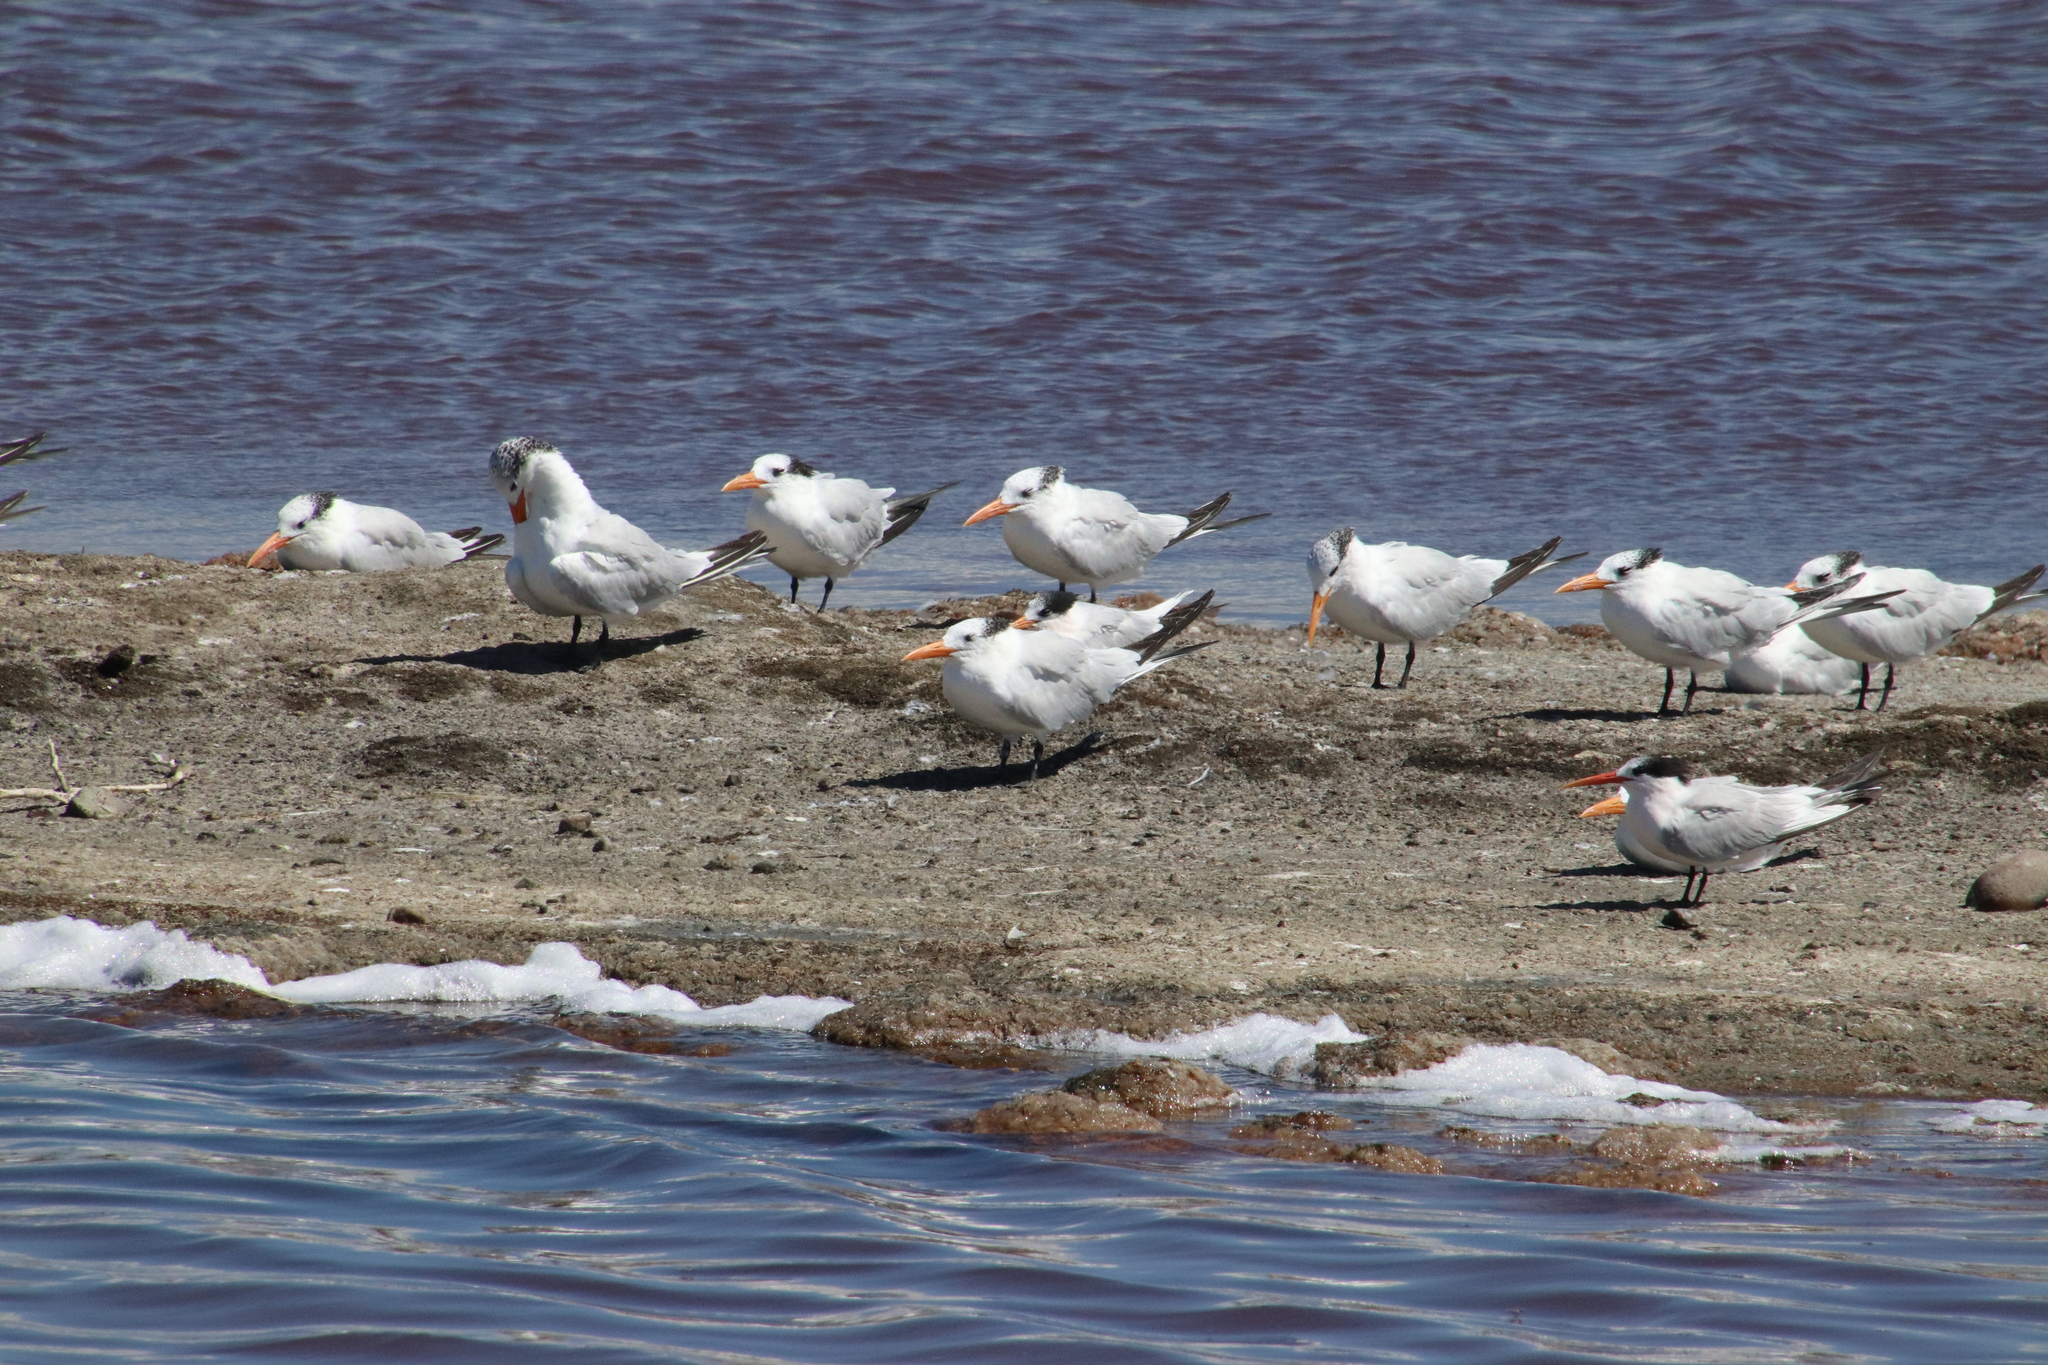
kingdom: Animalia
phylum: Chordata
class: Aves
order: Charadriiformes
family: Laridae
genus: Thalasseus
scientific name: Thalasseus maximus
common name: Royal tern
